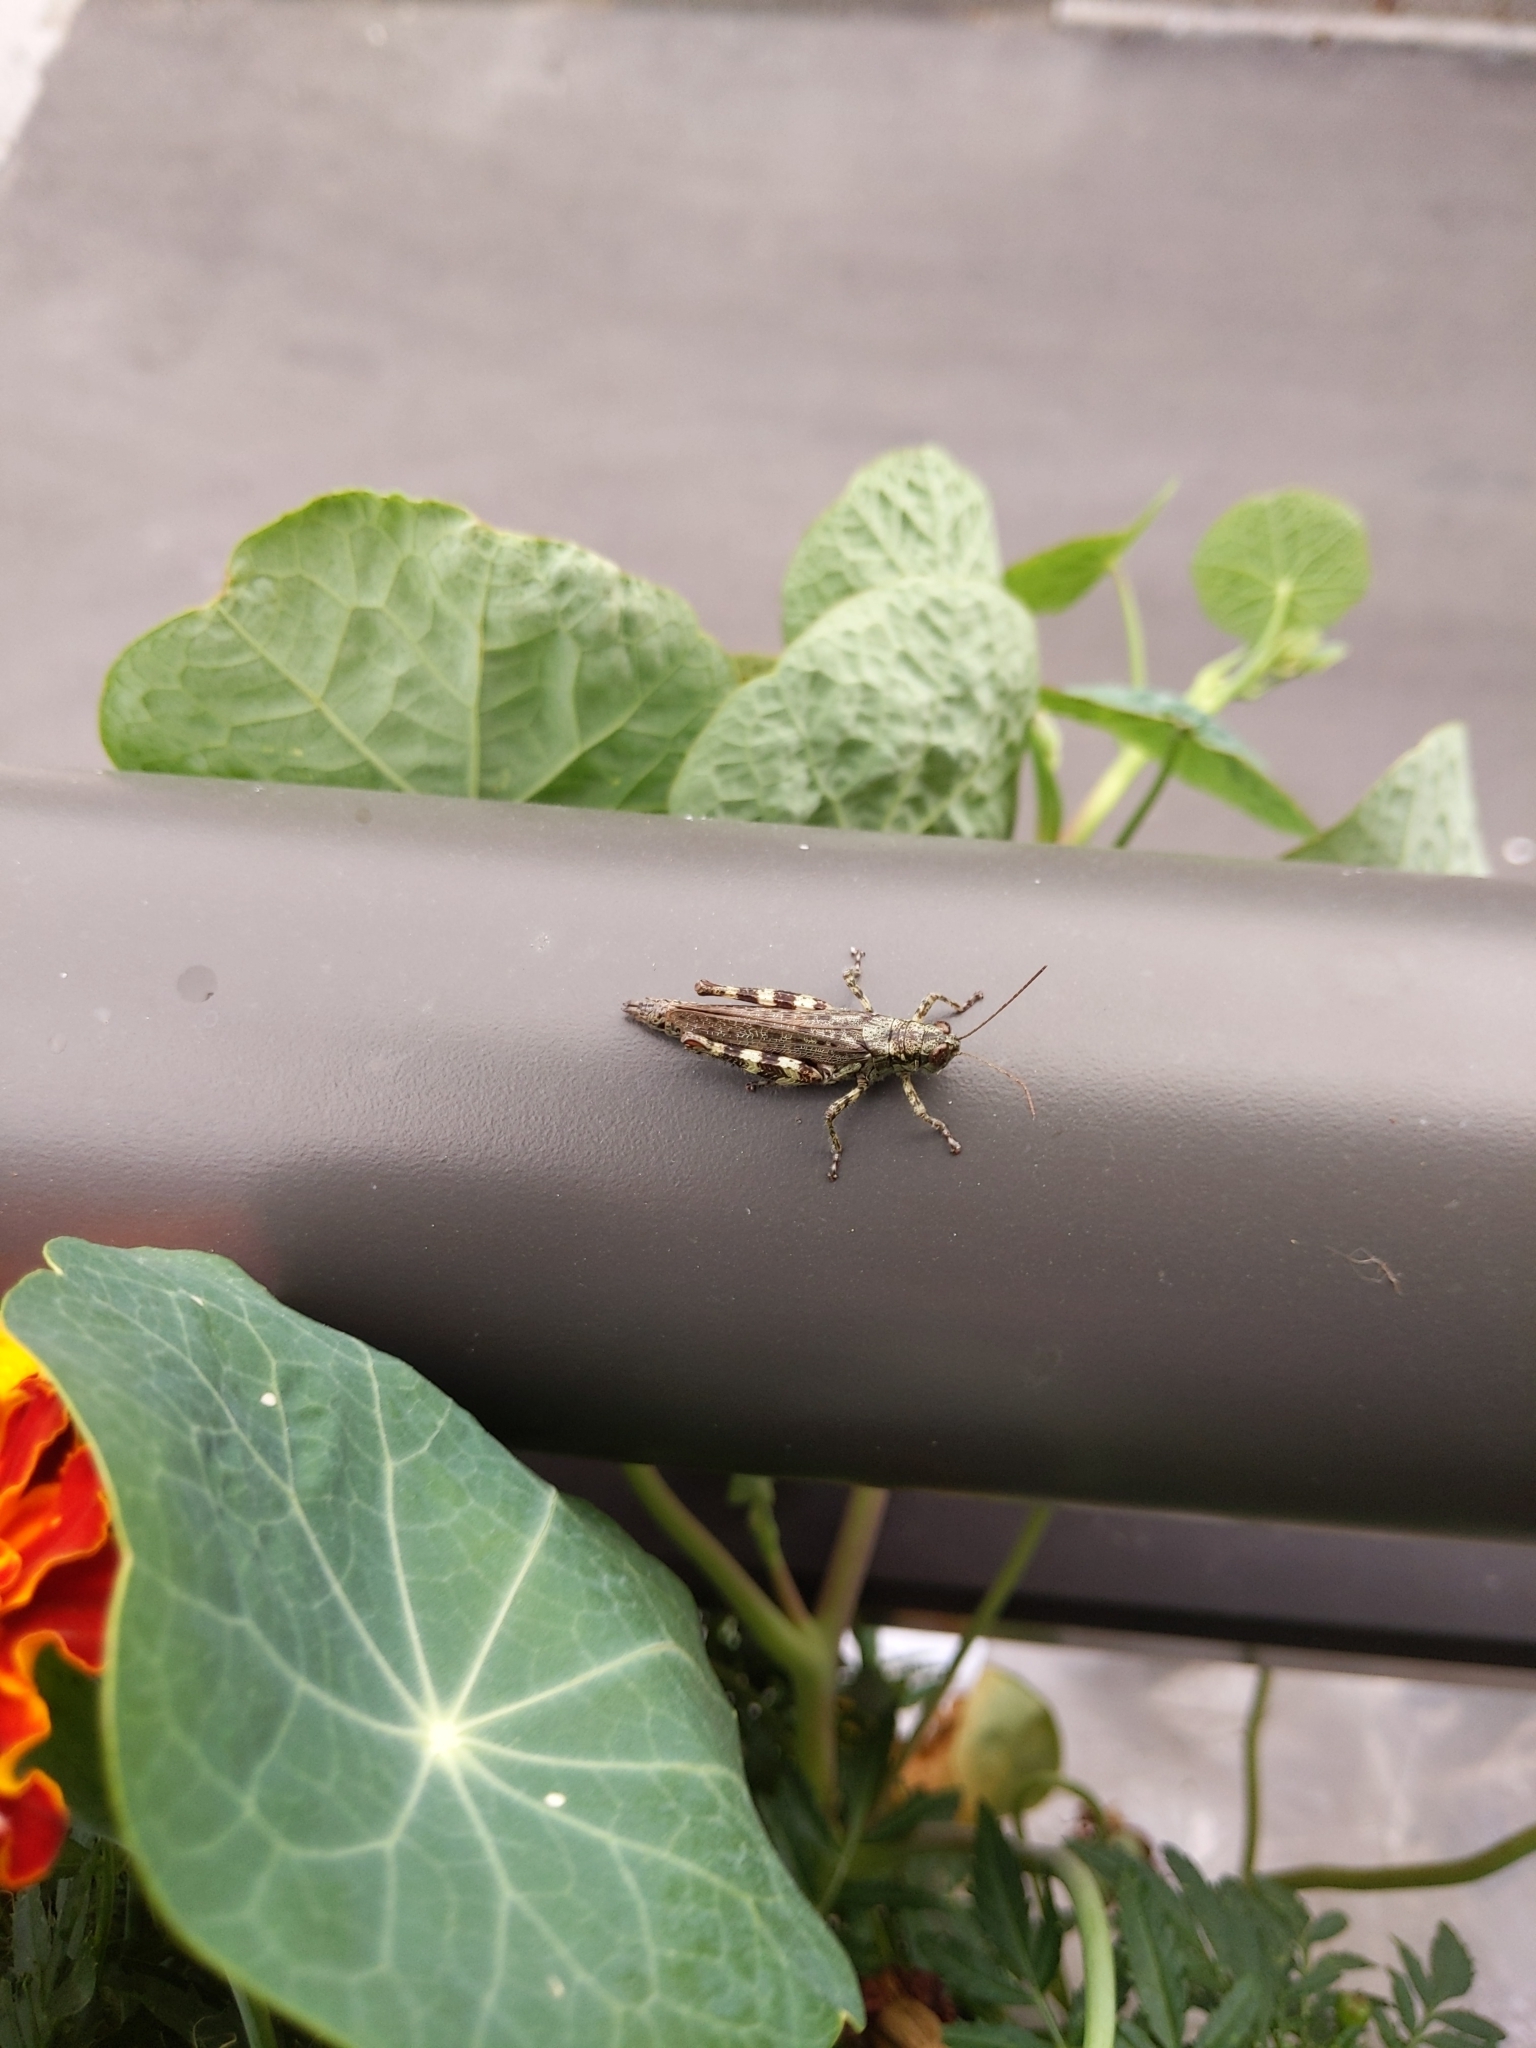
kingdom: Animalia
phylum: Arthropoda
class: Insecta
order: Orthoptera
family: Acrididae
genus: Melanoplus
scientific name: Melanoplus punctulatus
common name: Pine-tree spur-throat grasshopper
